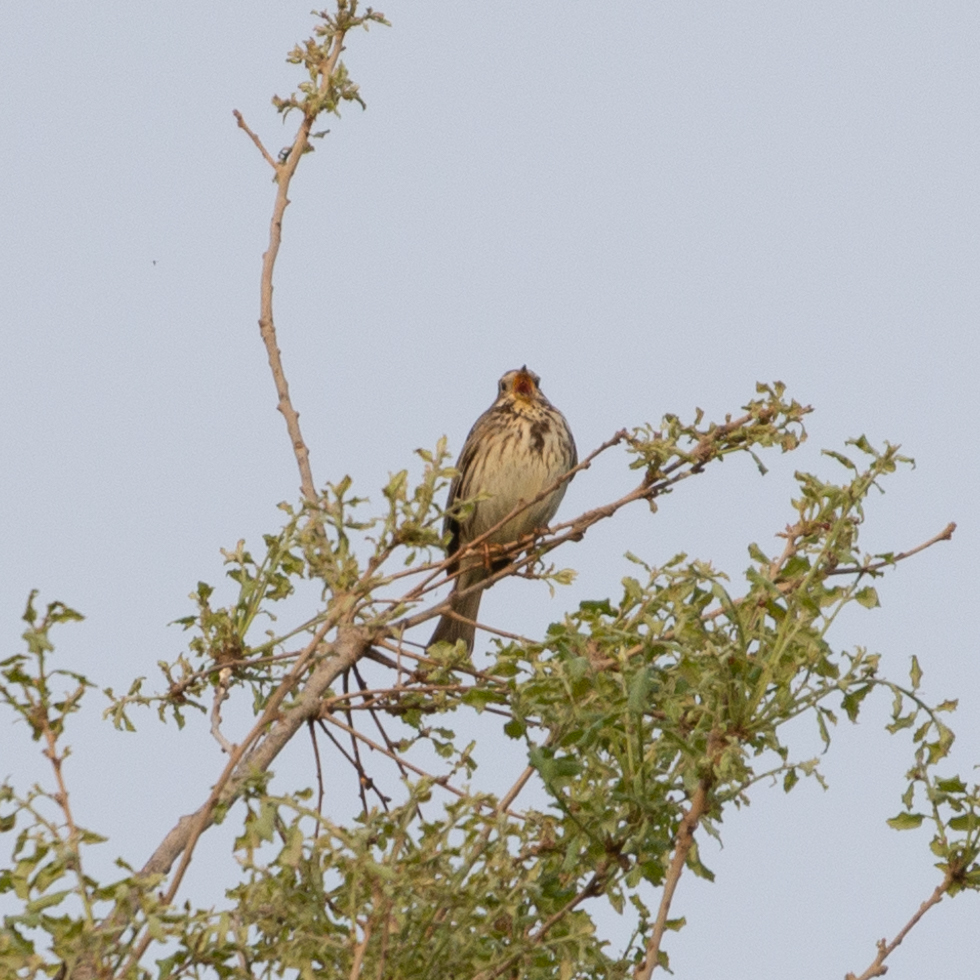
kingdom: Animalia
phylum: Chordata
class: Aves
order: Passeriformes
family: Emberizidae
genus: Emberiza
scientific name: Emberiza calandra
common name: Corn bunting
